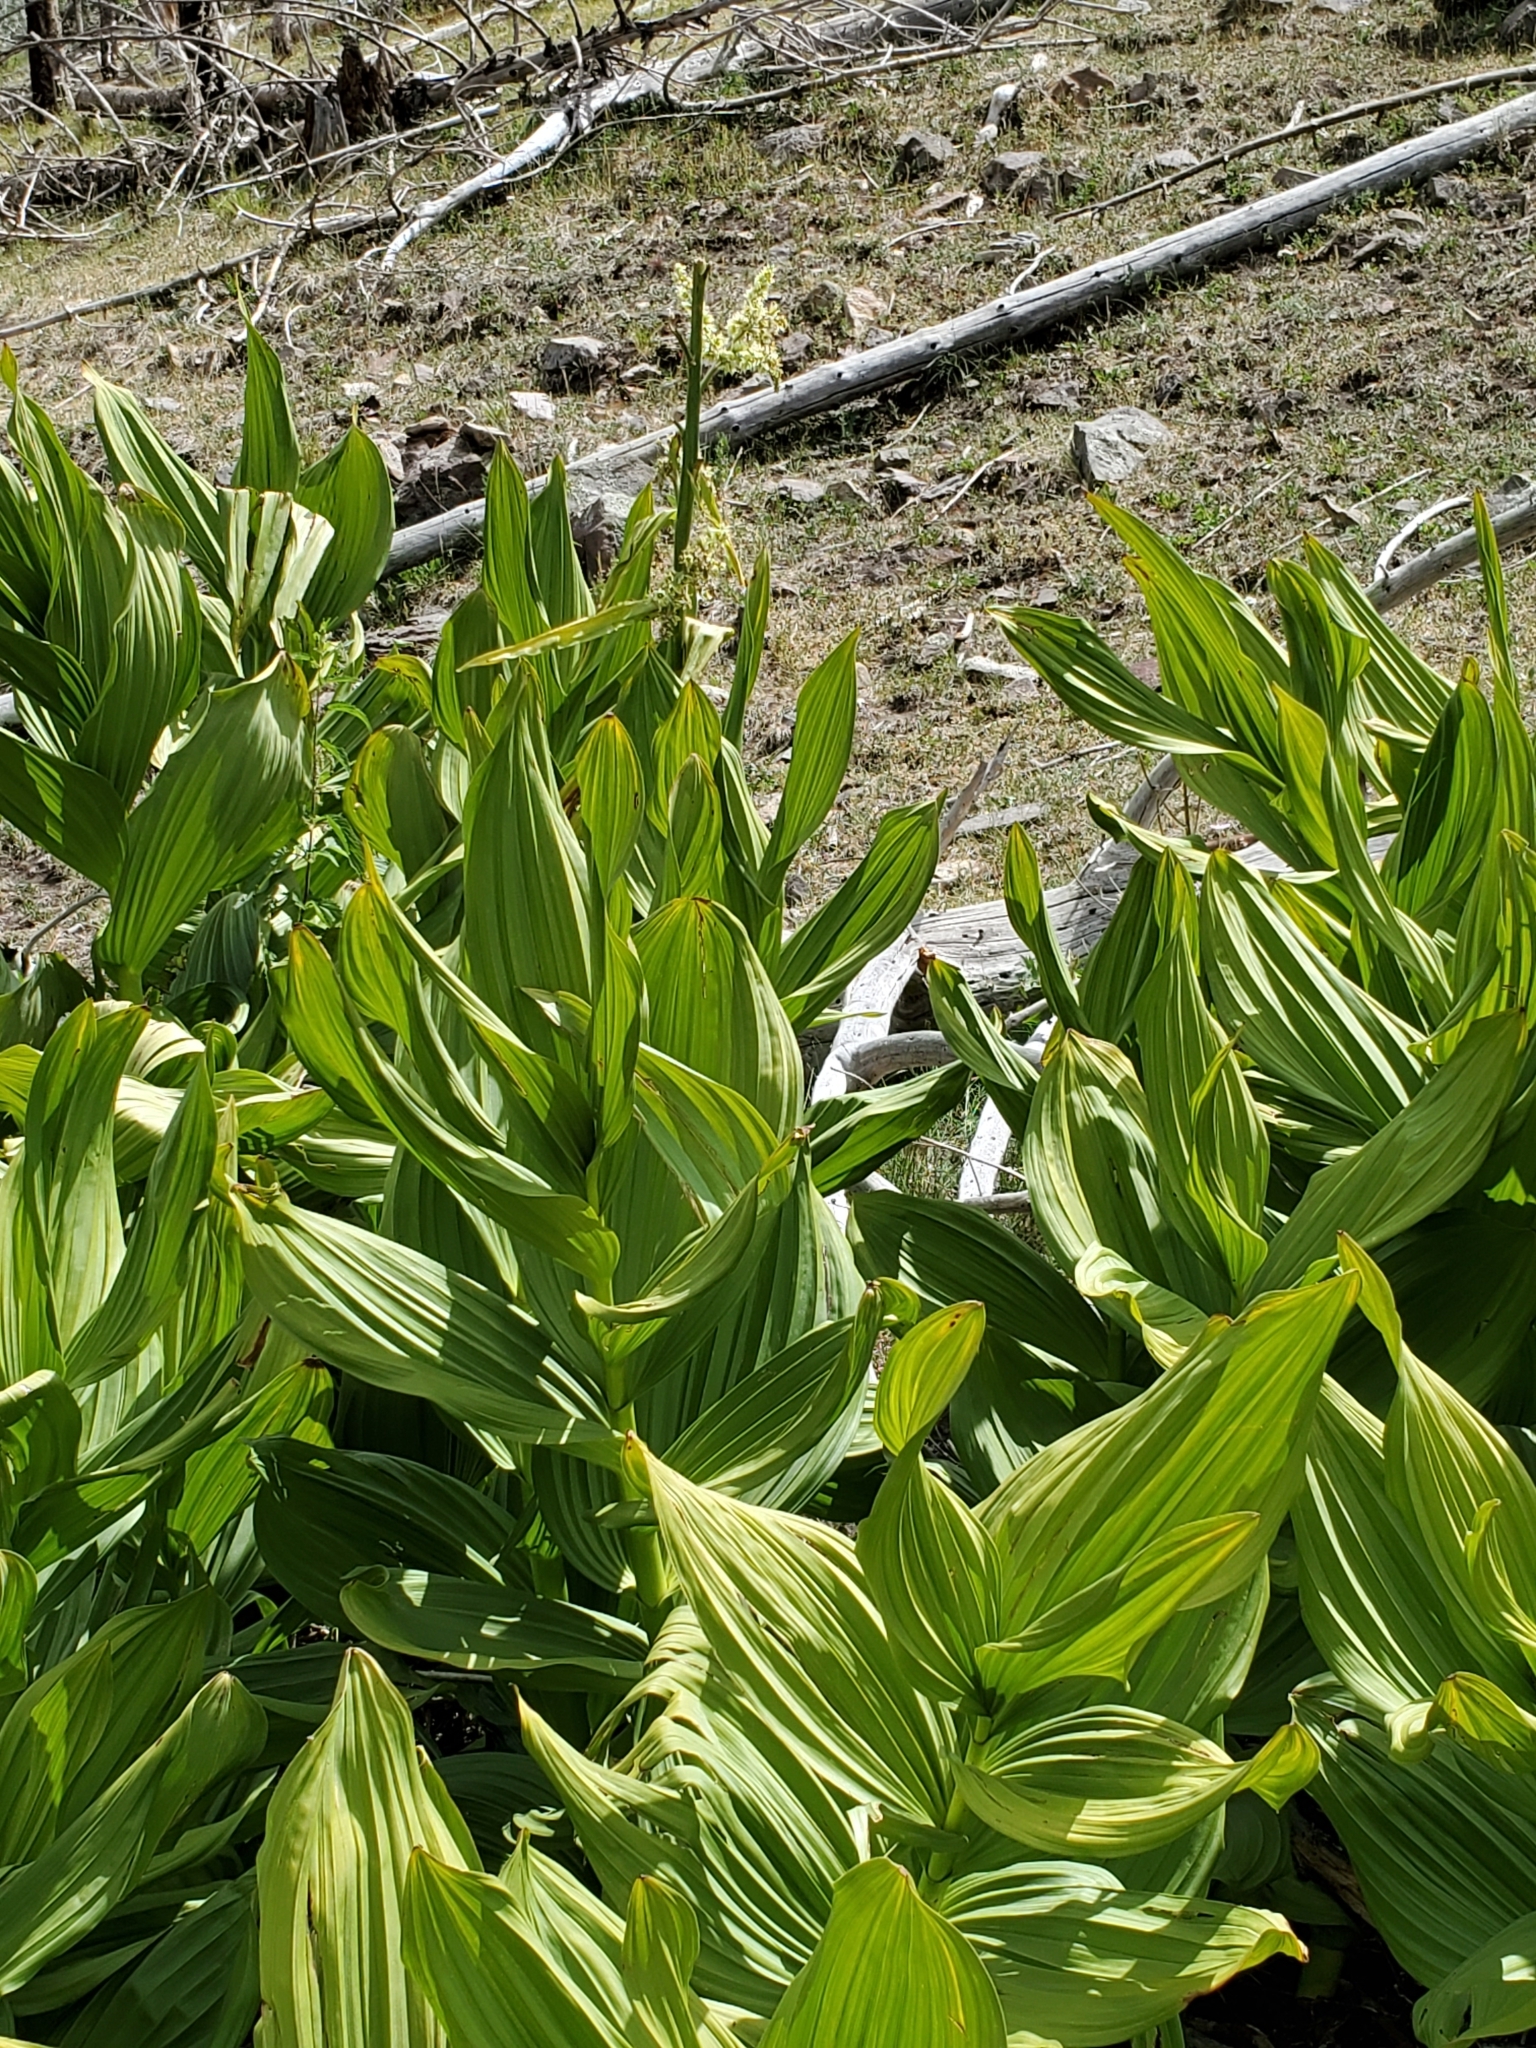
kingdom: Plantae
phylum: Tracheophyta
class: Liliopsida
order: Liliales
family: Melanthiaceae
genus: Veratrum
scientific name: Veratrum californicum
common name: California veratrum
